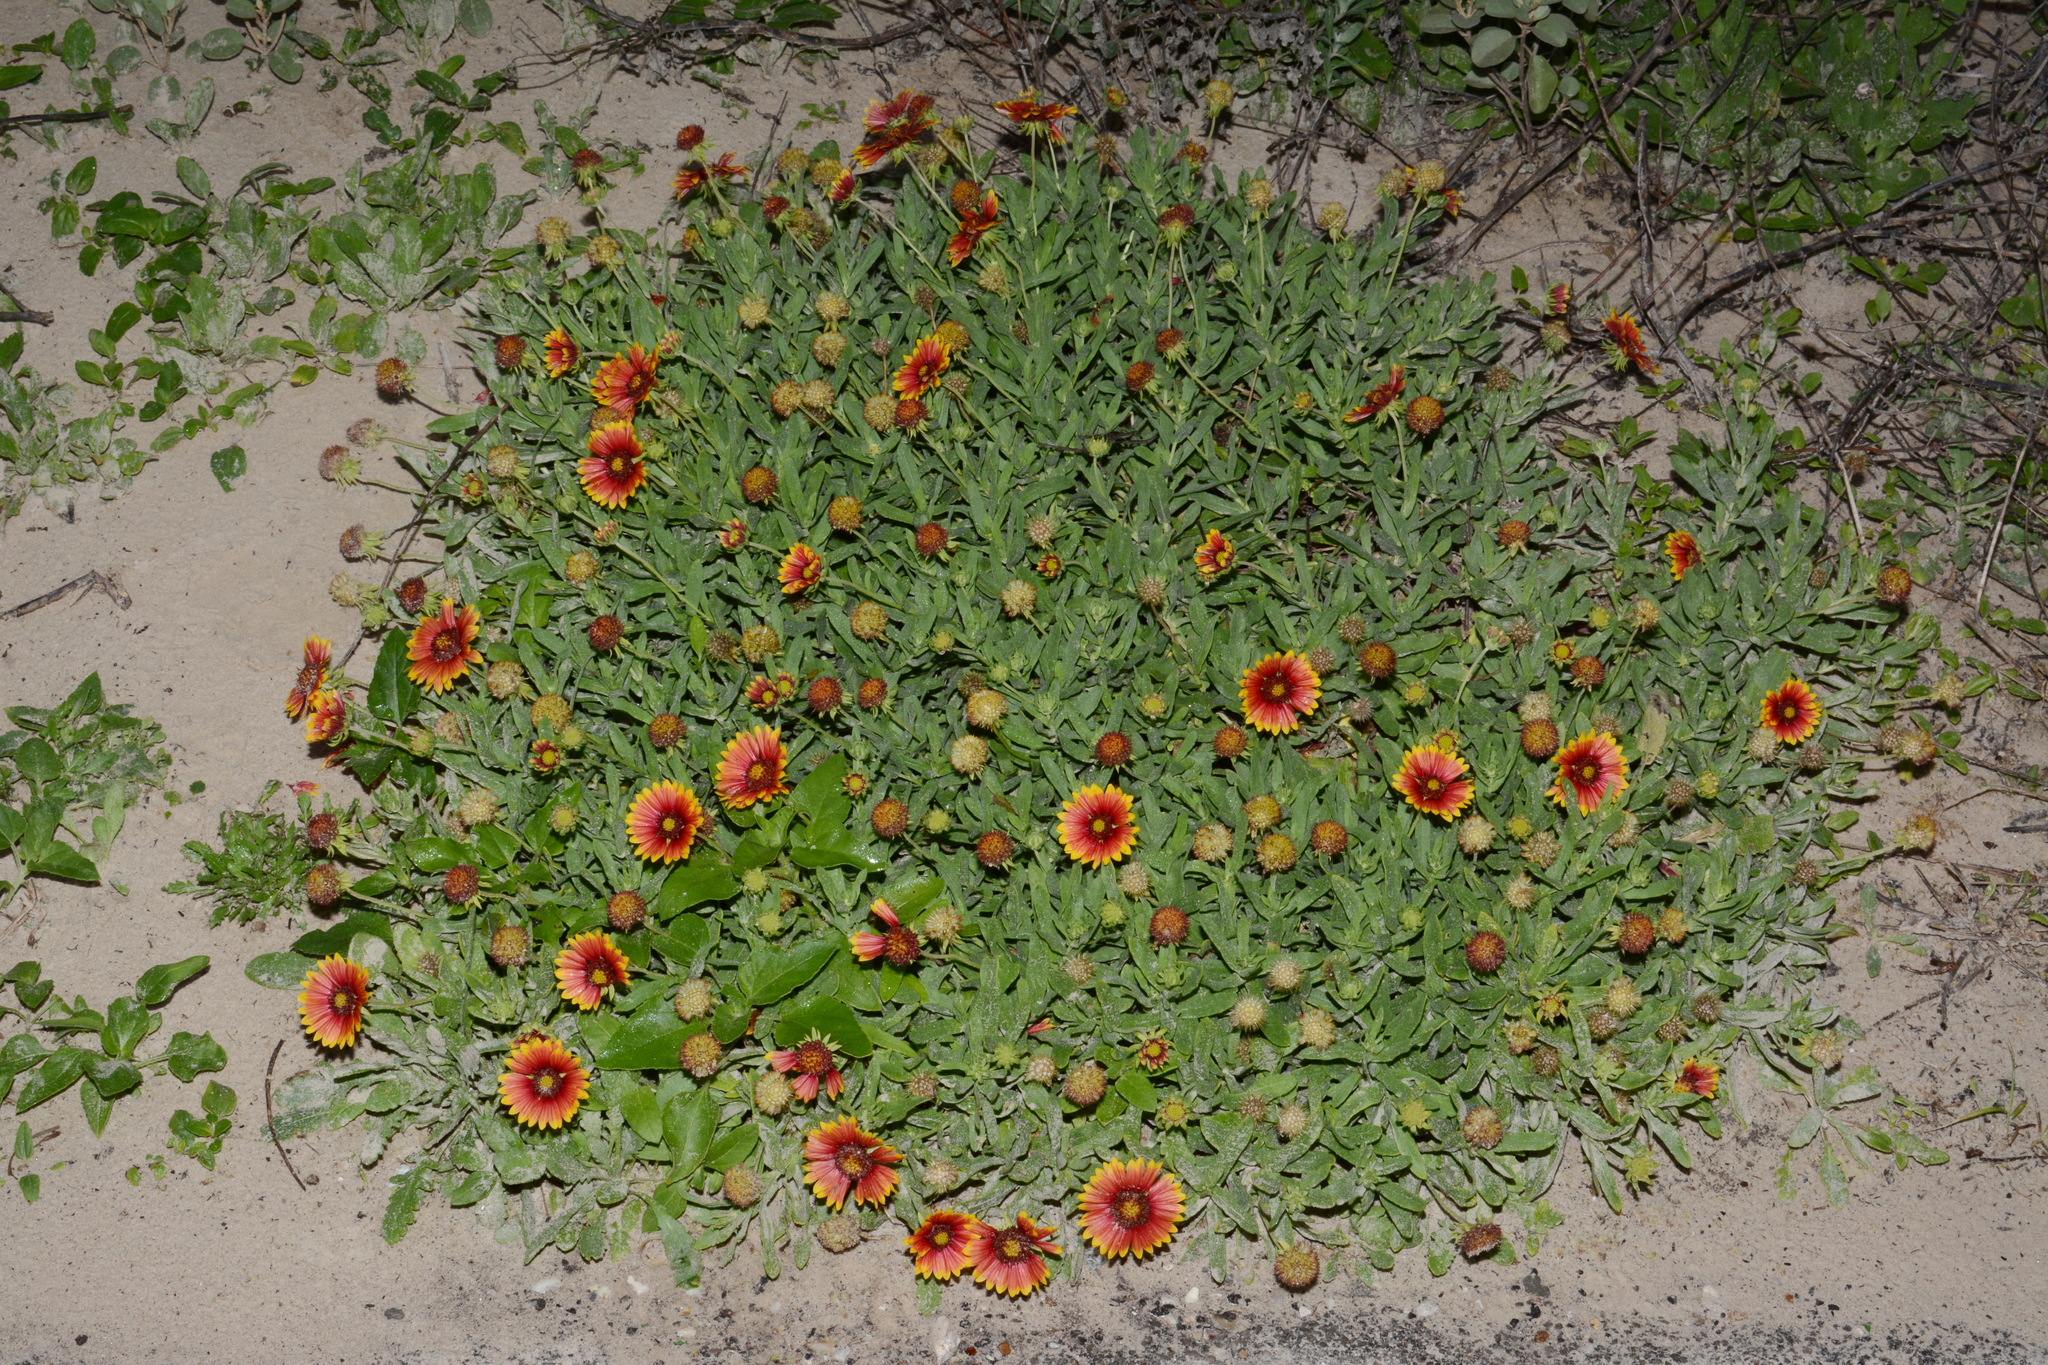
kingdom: Plantae
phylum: Tracheophyta
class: Magnoliopsida
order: Asterales
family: Asteraceae
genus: Gaillardia
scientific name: Gaillardia pulchella
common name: Firewheel
